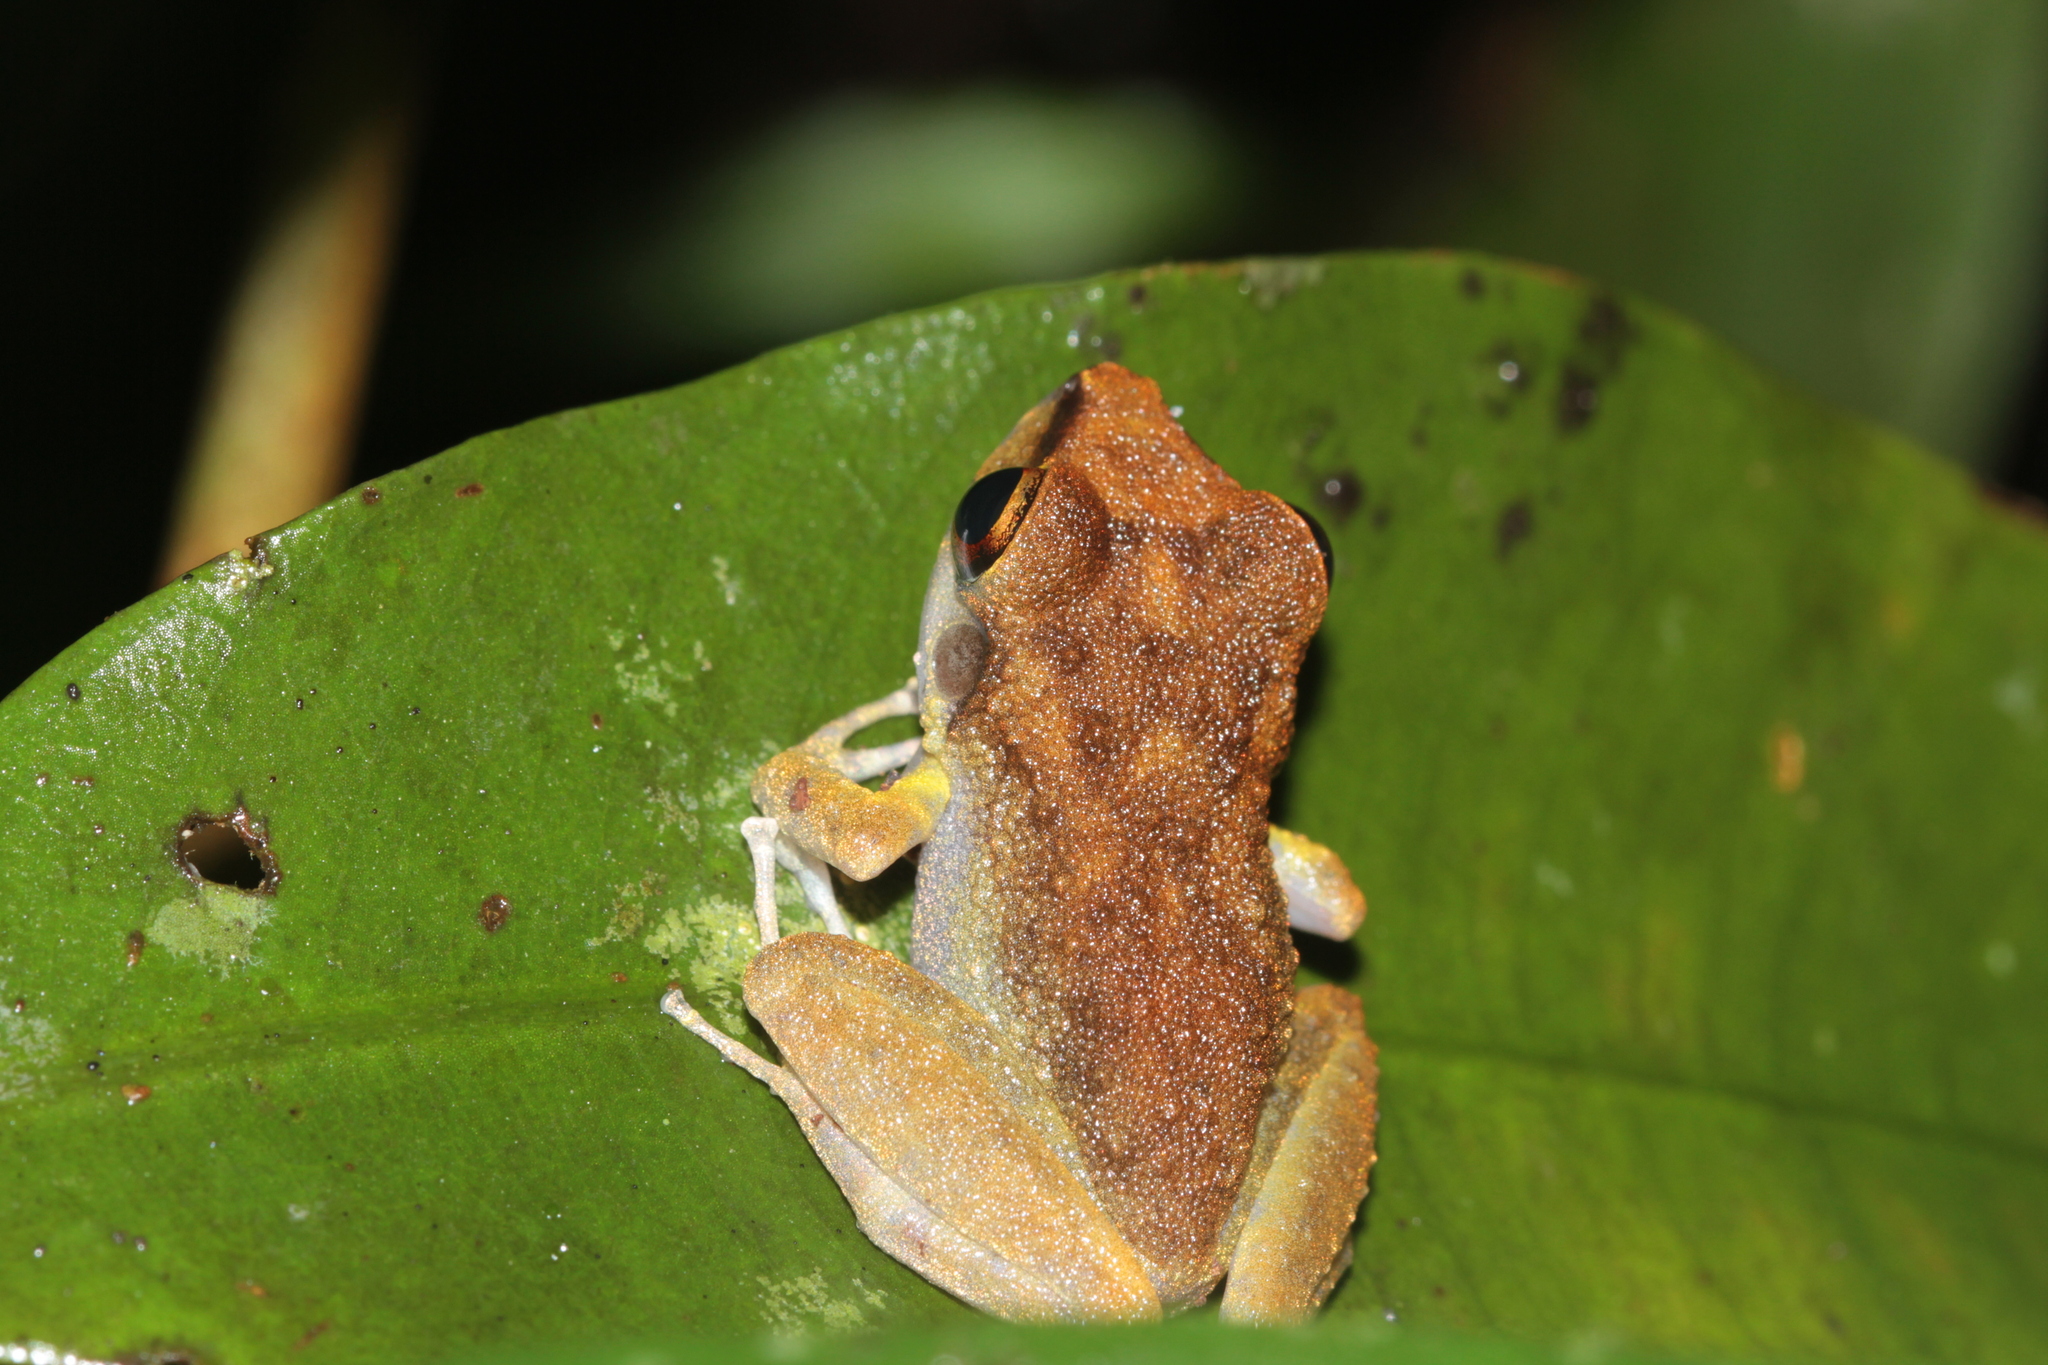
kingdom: Animalia
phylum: Chordata
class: Amphibia
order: Anura
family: Craugastoridae
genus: Pristimantis
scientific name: Pristimantis zeuctotylus
